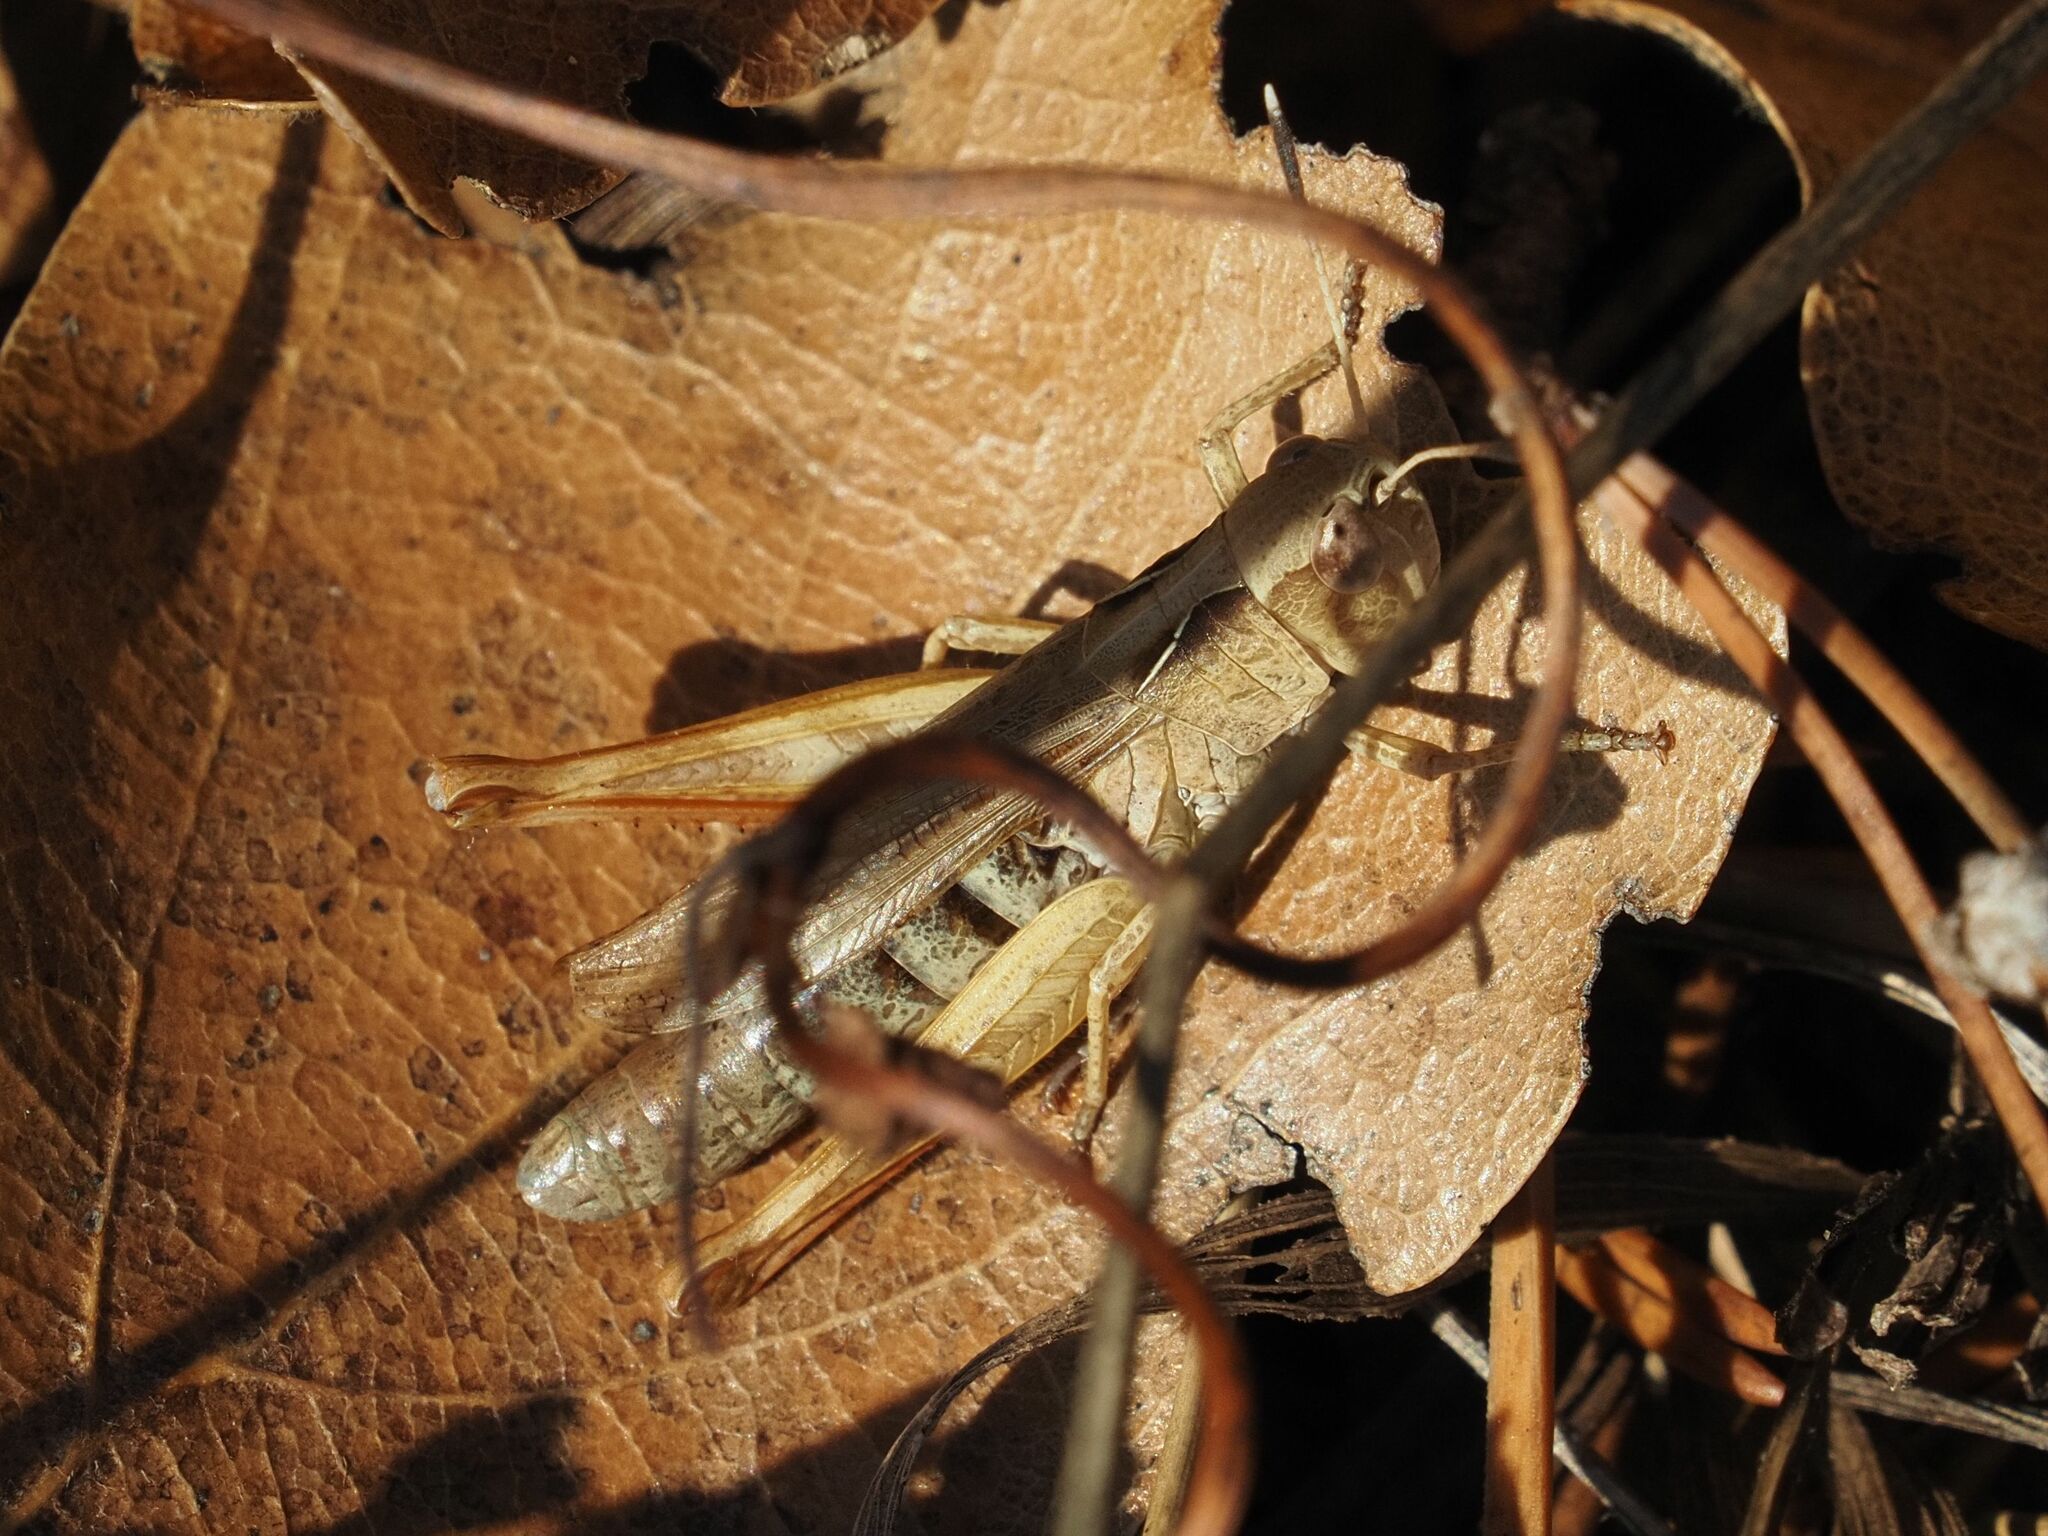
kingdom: Animalia
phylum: Arthropoda
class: Insecta
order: Orthoptera
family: Acrididae
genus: Gomphocerippus
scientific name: Gomphocerippus rufus
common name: Rufous grasshopper
